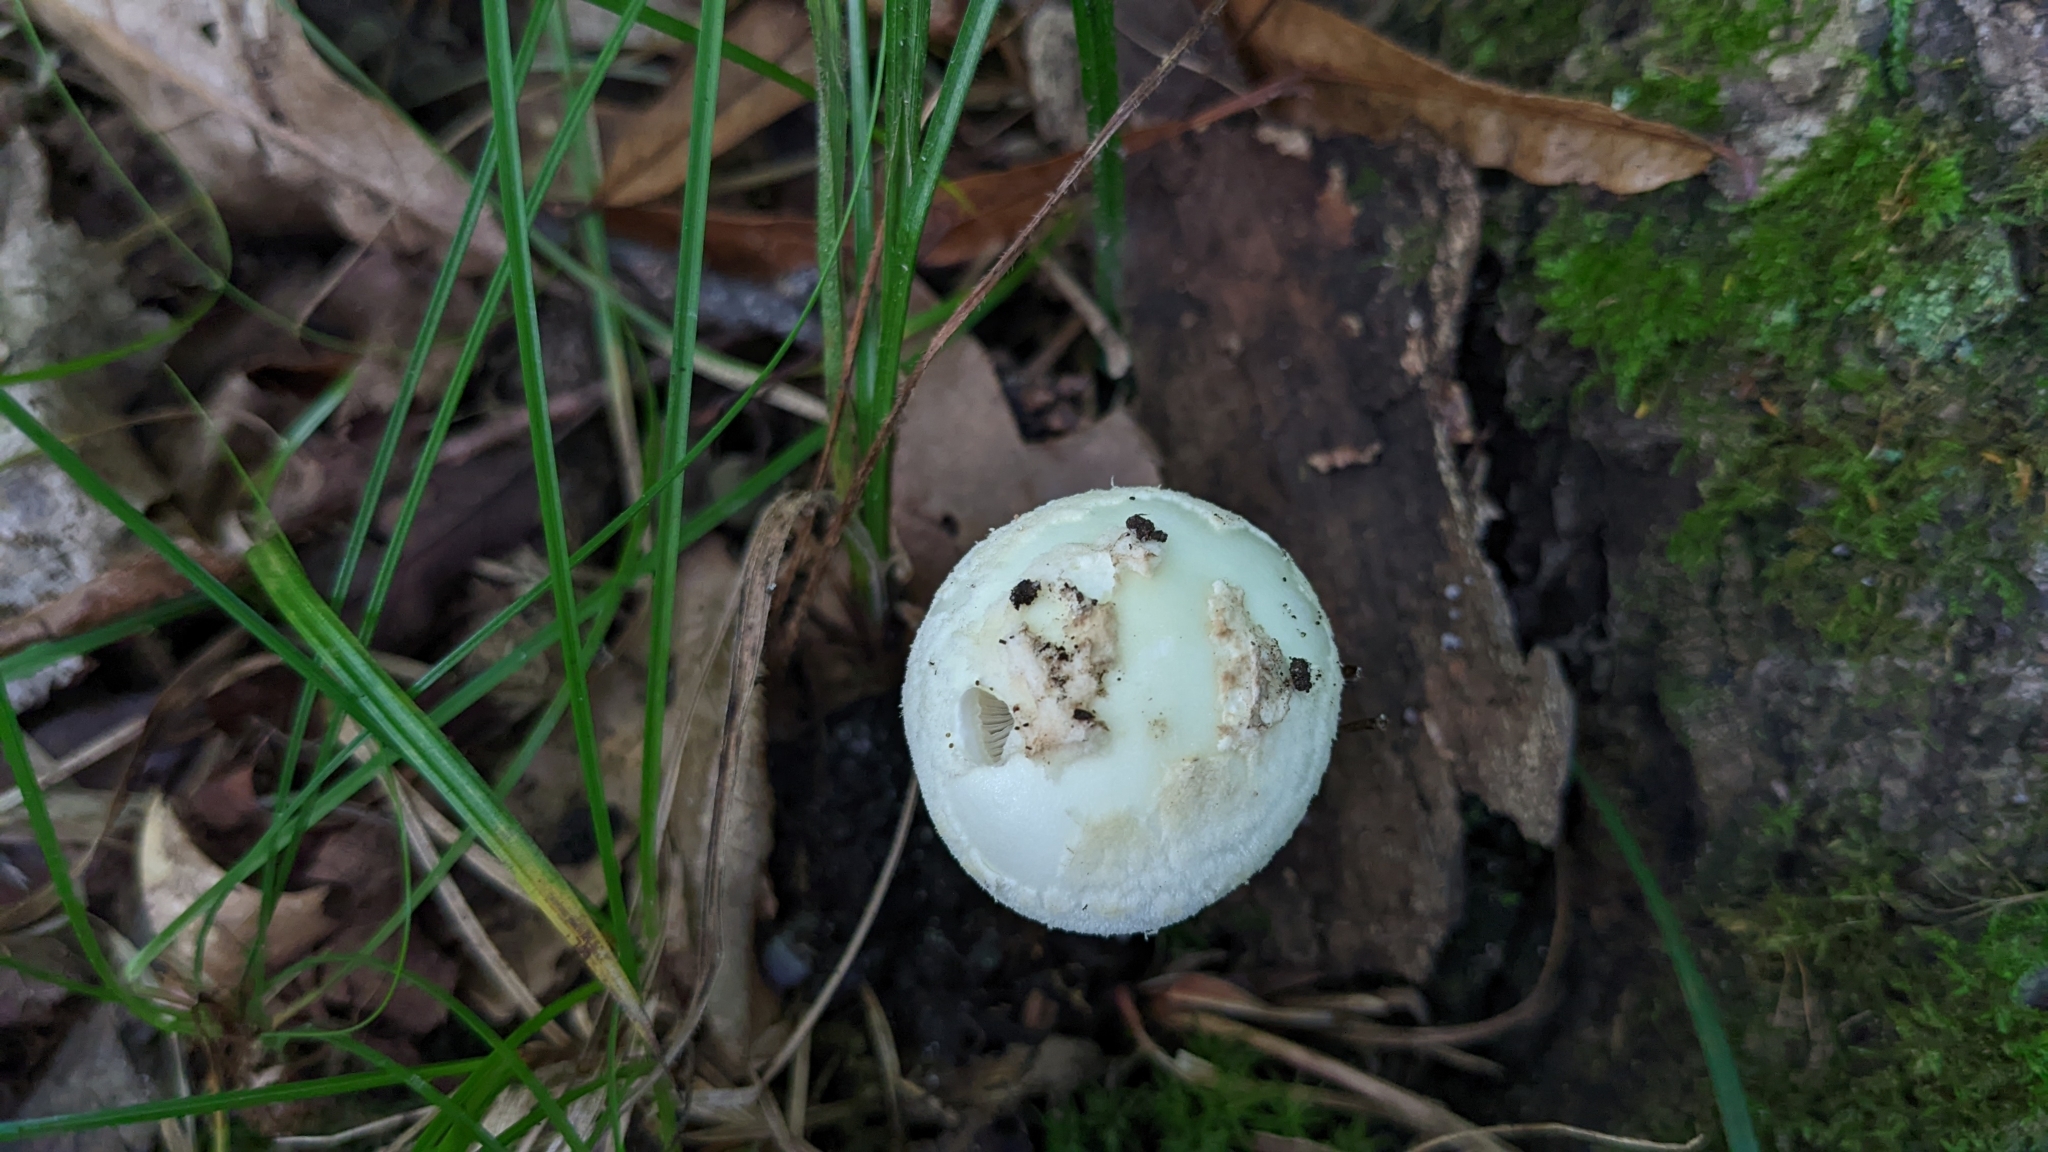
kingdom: Fungi
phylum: Basidiomycota
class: Agaricomycetes
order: Agaricales
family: Amanitaceae
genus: Amanita
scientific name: Amanita lavendula
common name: Coker's lavender staining amanita
